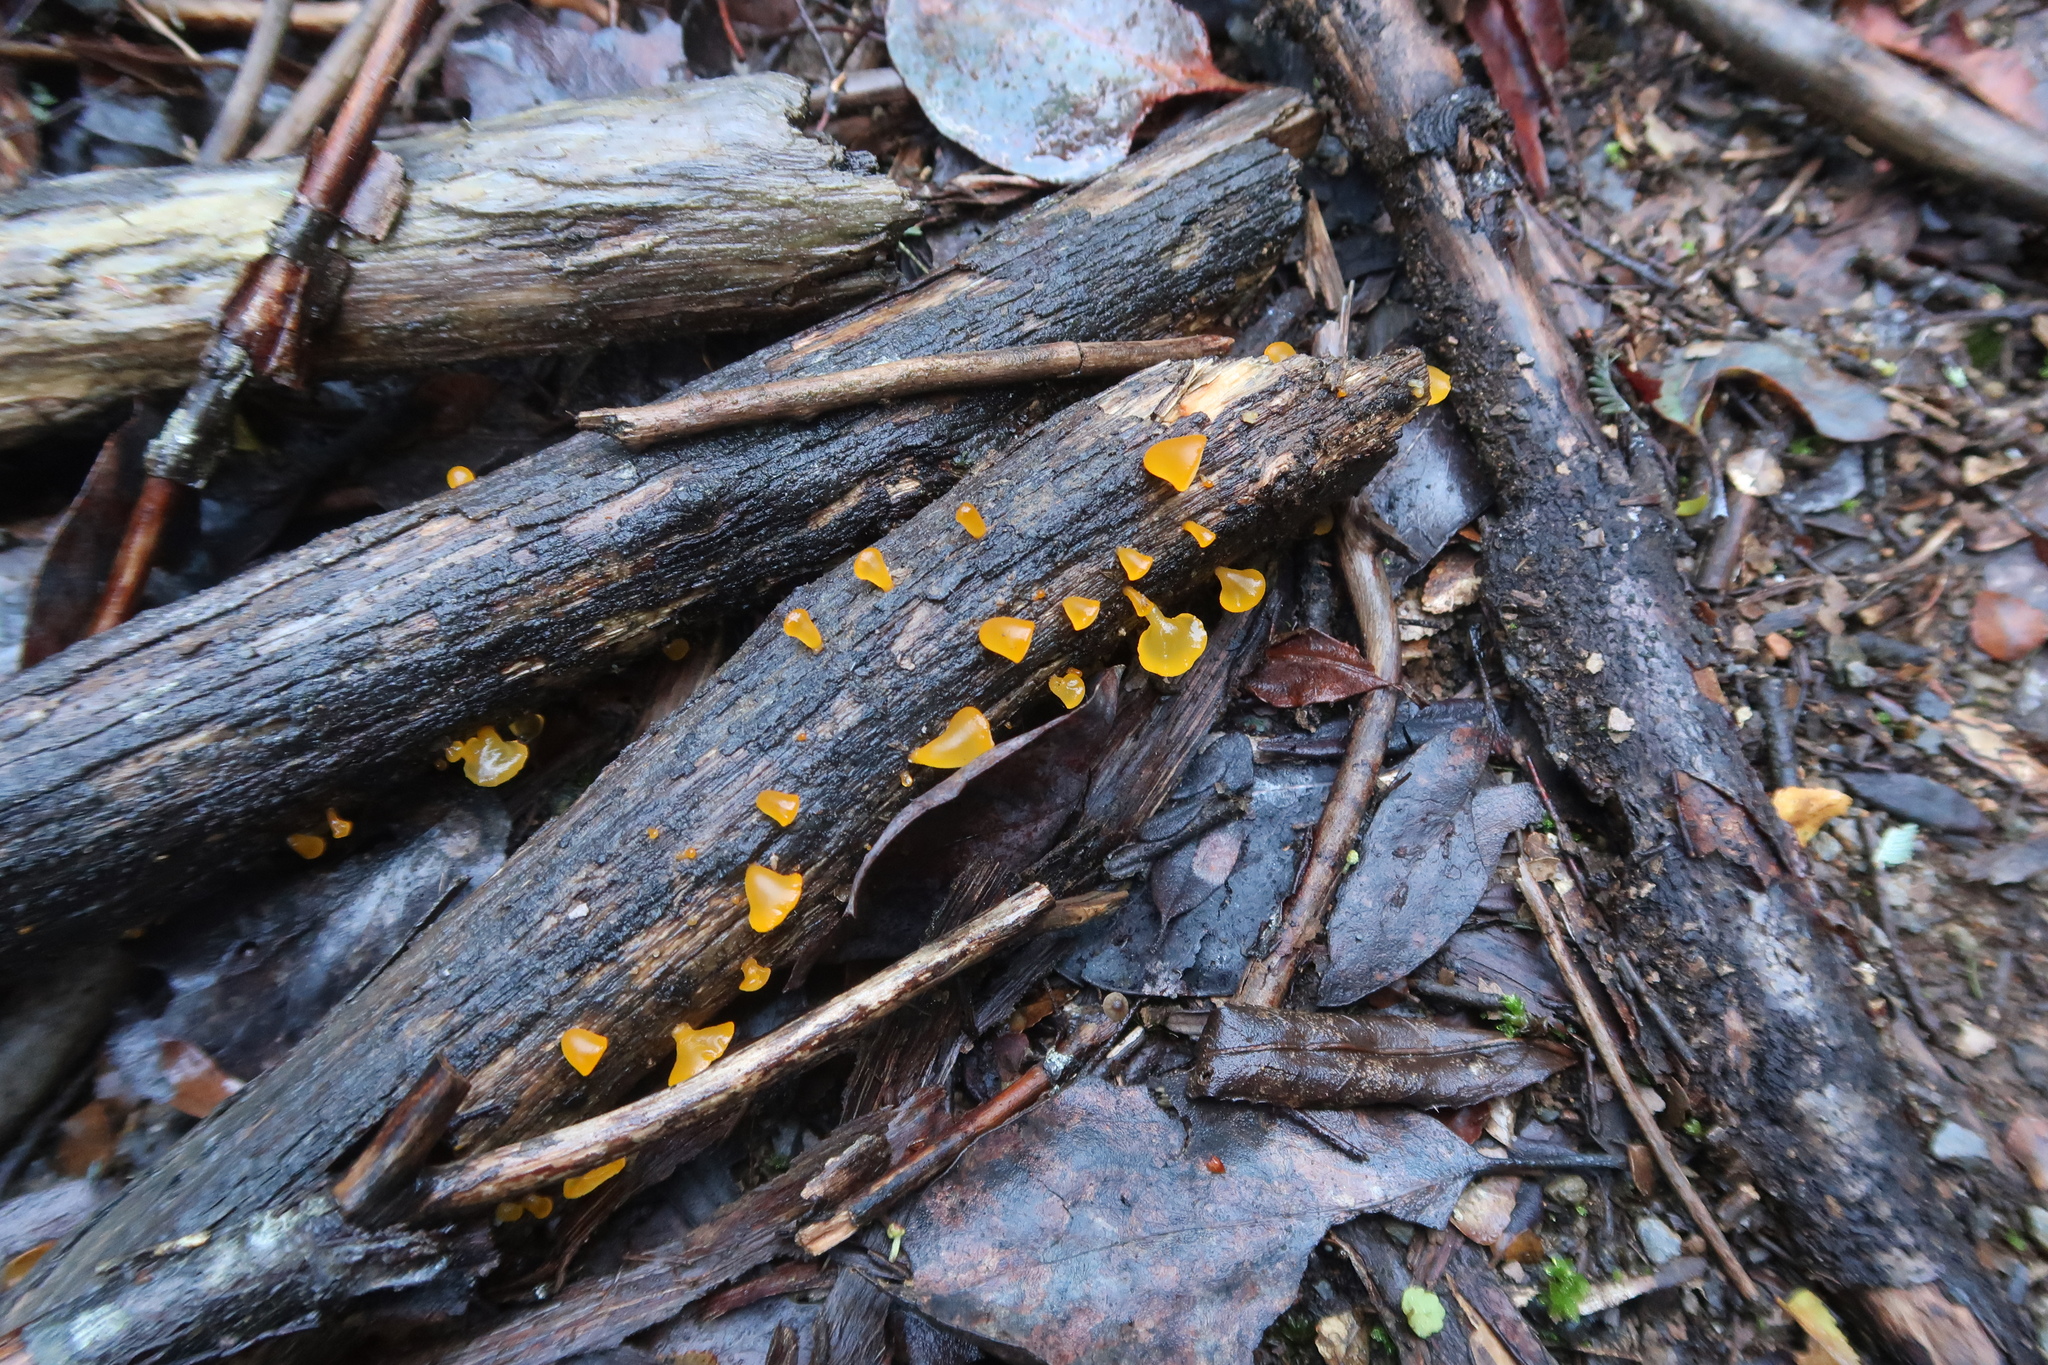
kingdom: Fungi
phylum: Basidiomycota
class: Dacrymycetes
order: Dacrymycetales
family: Dacrymycetaceae
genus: Heterotextus
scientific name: Heterotextus peziziformis
